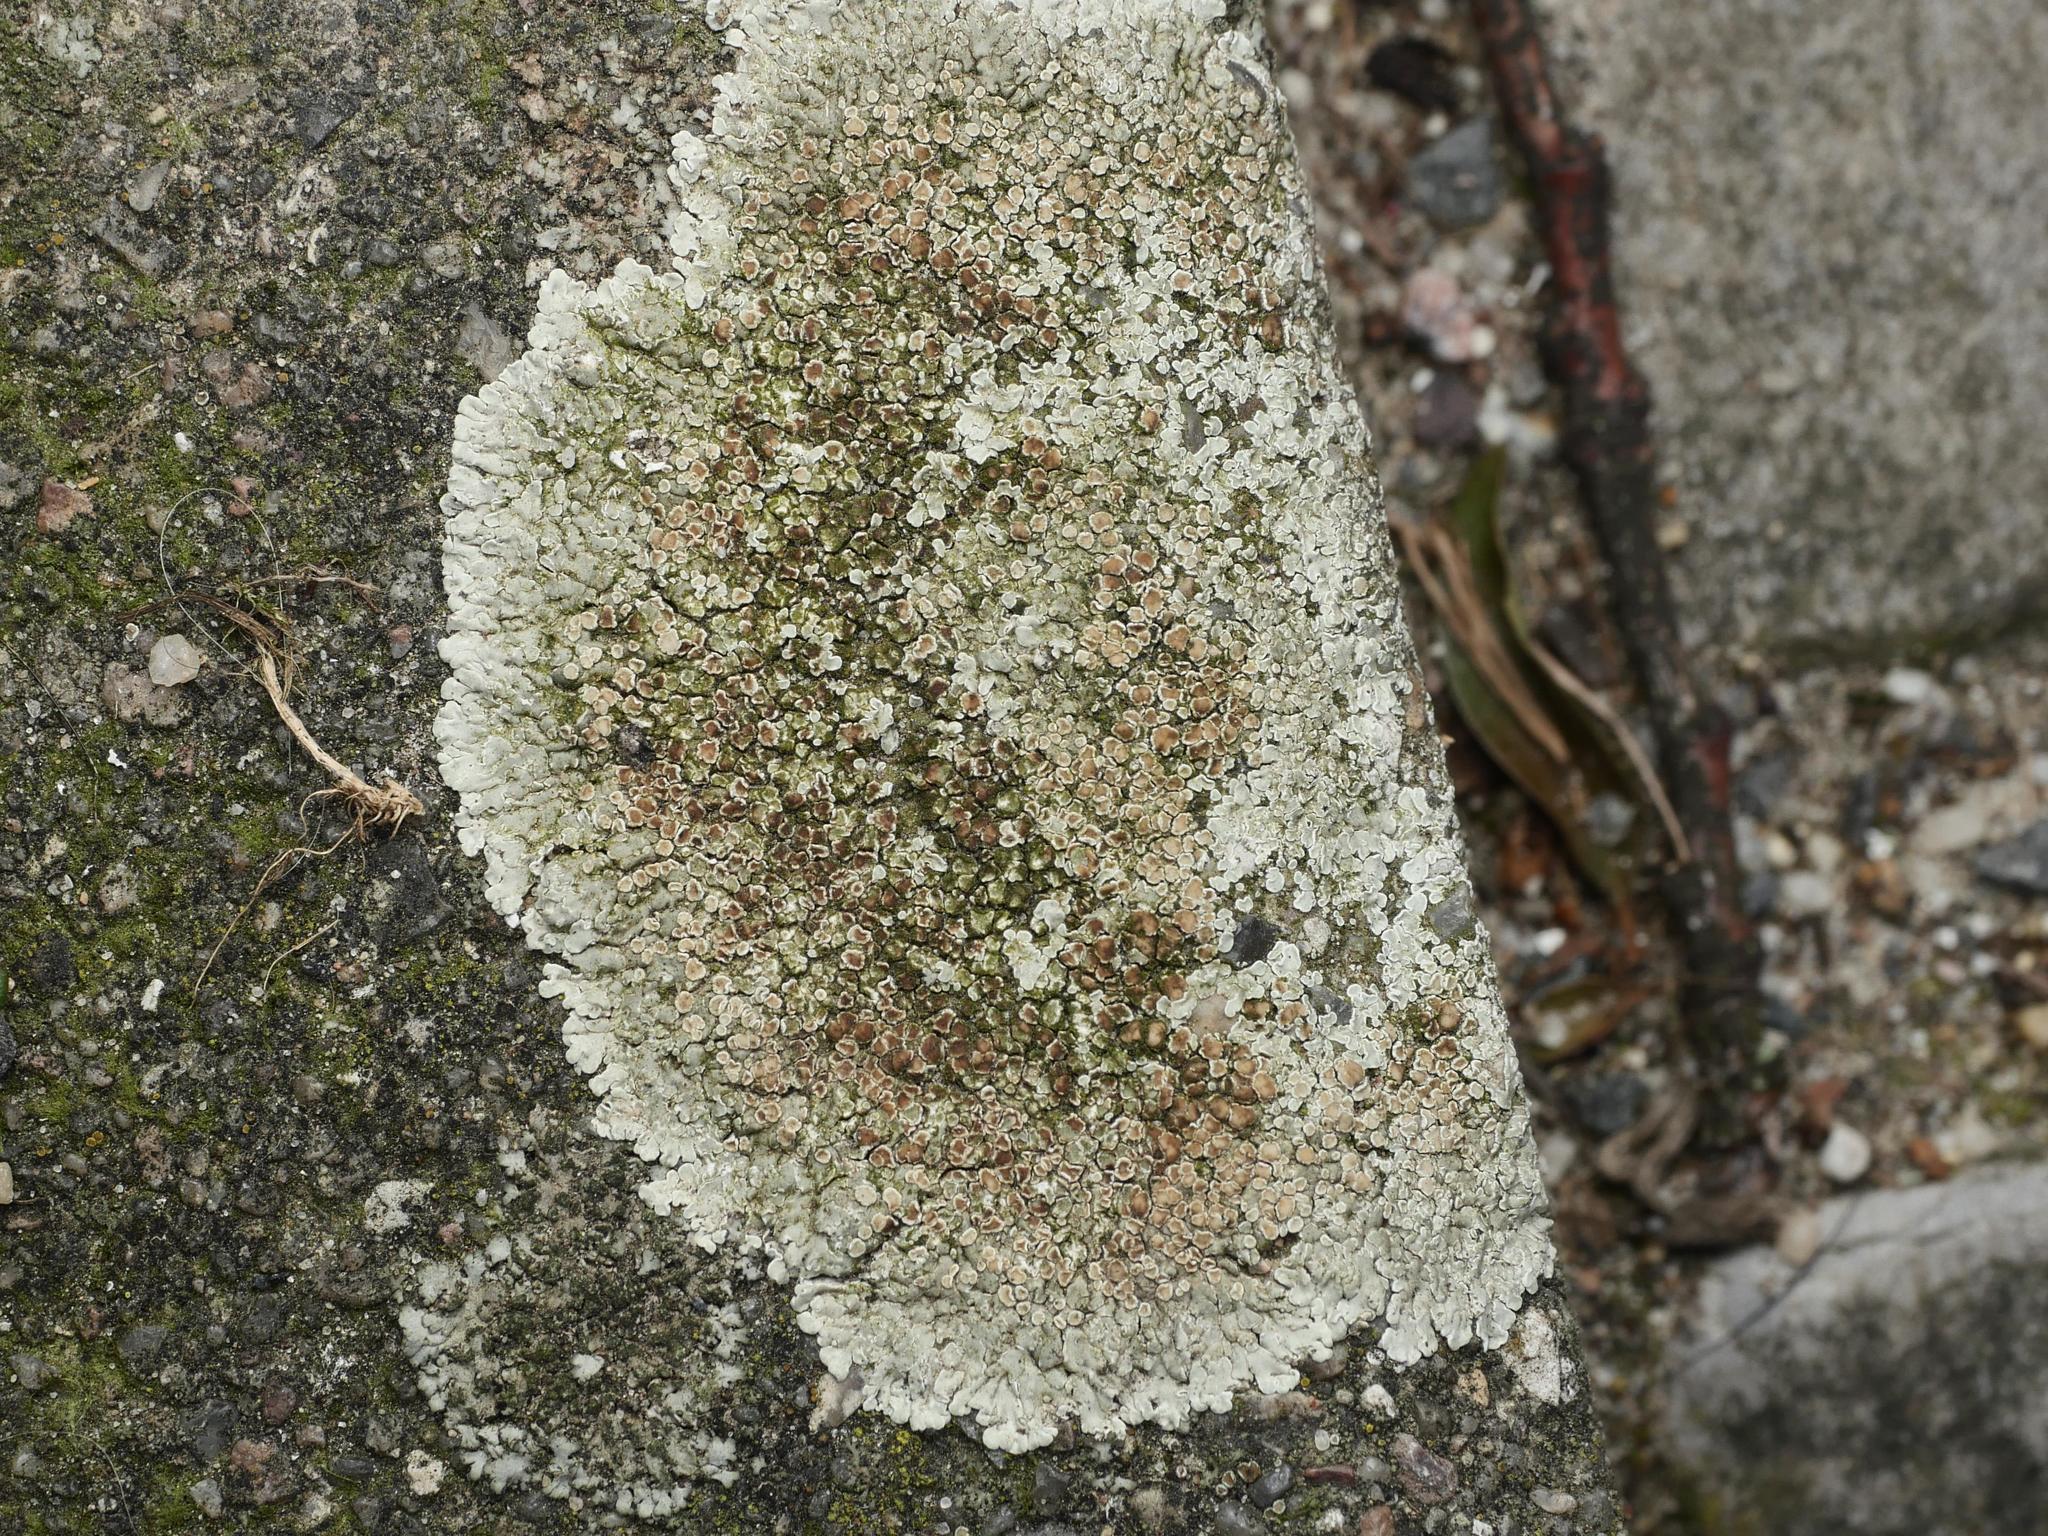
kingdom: Fungi
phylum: Ascomycota
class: Lecanoromycetes
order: Lecanorales
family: Lecanoraceae
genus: Protoparmeliopsis
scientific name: Protoparmeliopsis muralis
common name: Stonewall rim lichen
